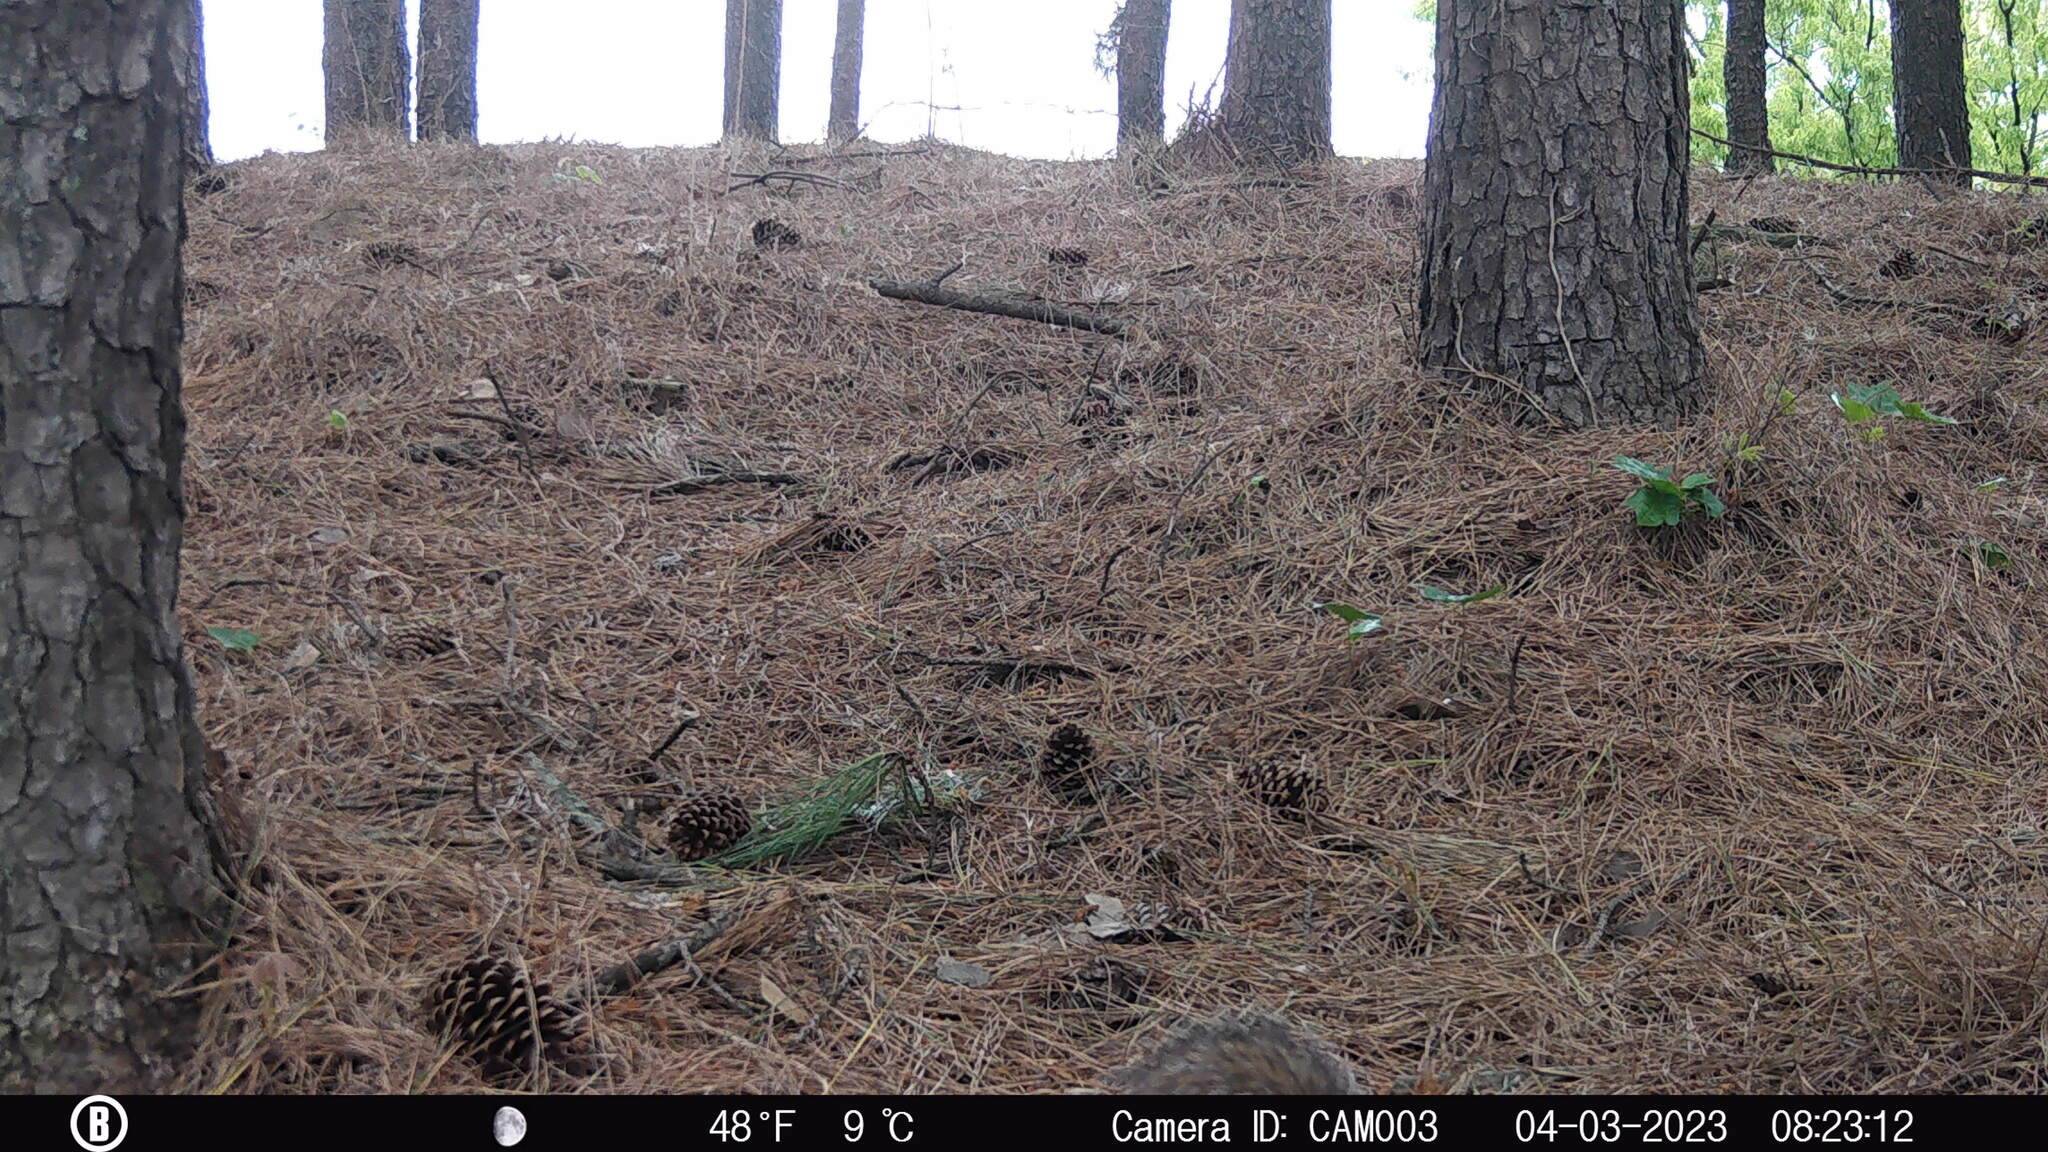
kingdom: Animalia
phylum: Chordata
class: Mammalia
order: Rodentia
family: Sciuridae
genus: Sciurus
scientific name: Sciurus carolinensis
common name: Eastern gray squirrel
